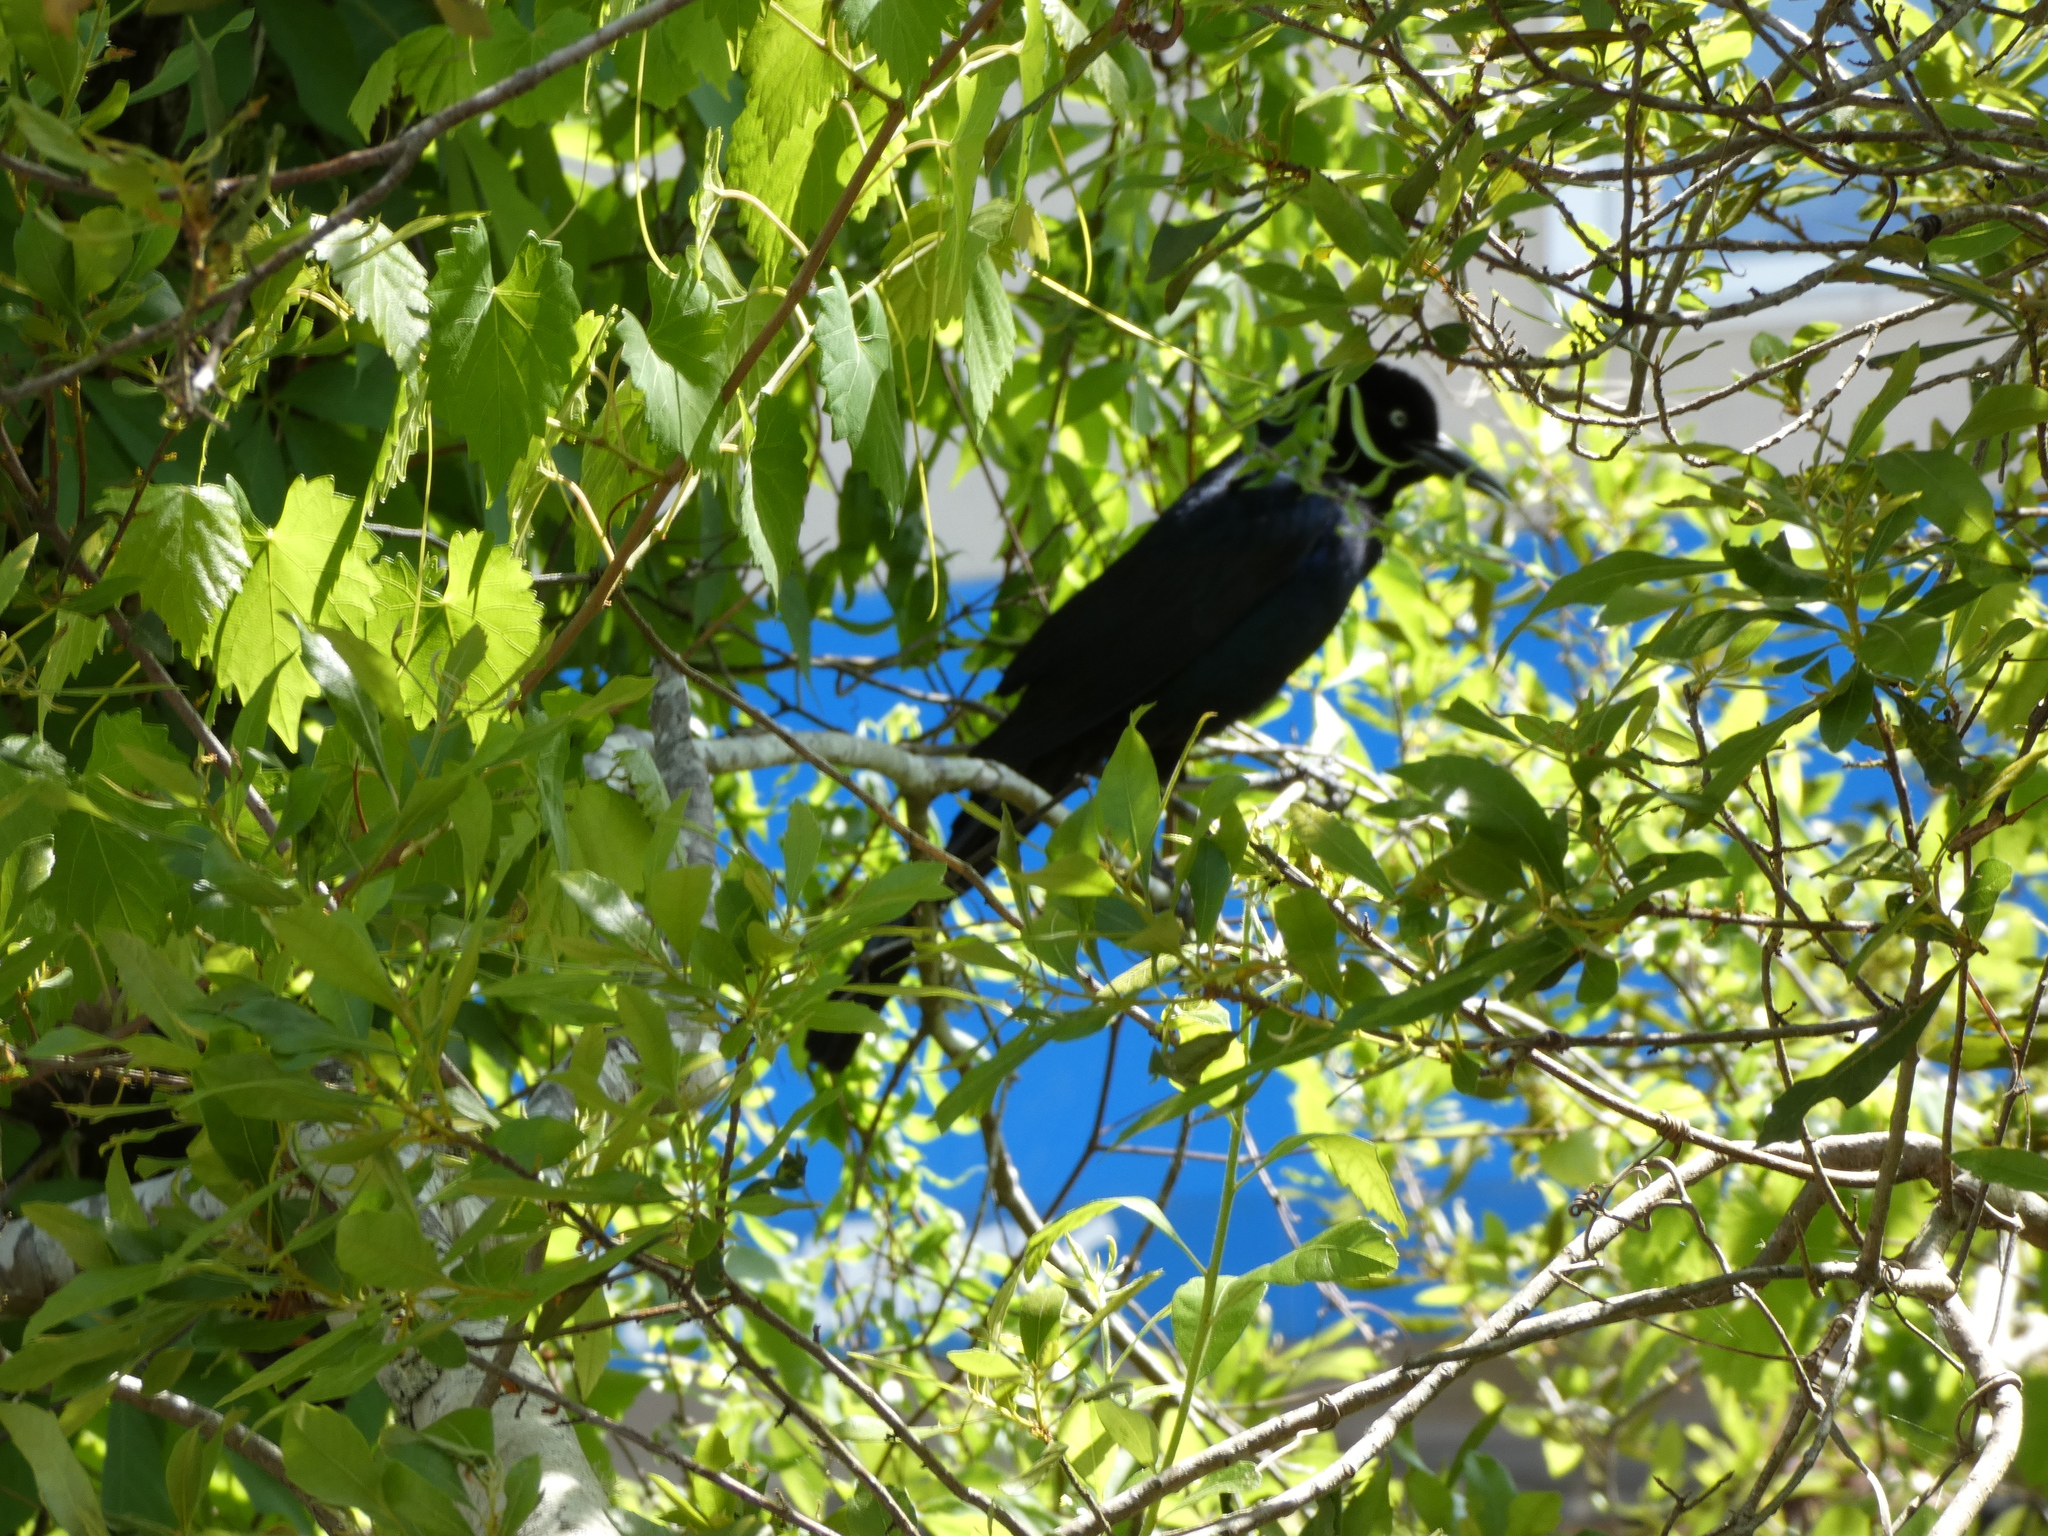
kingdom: Animalia
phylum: Chordata
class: Aves
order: Passeriformes
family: Icteridae
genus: Quiscalus
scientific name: Quiscalus major
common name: Boat-tailed grackle
